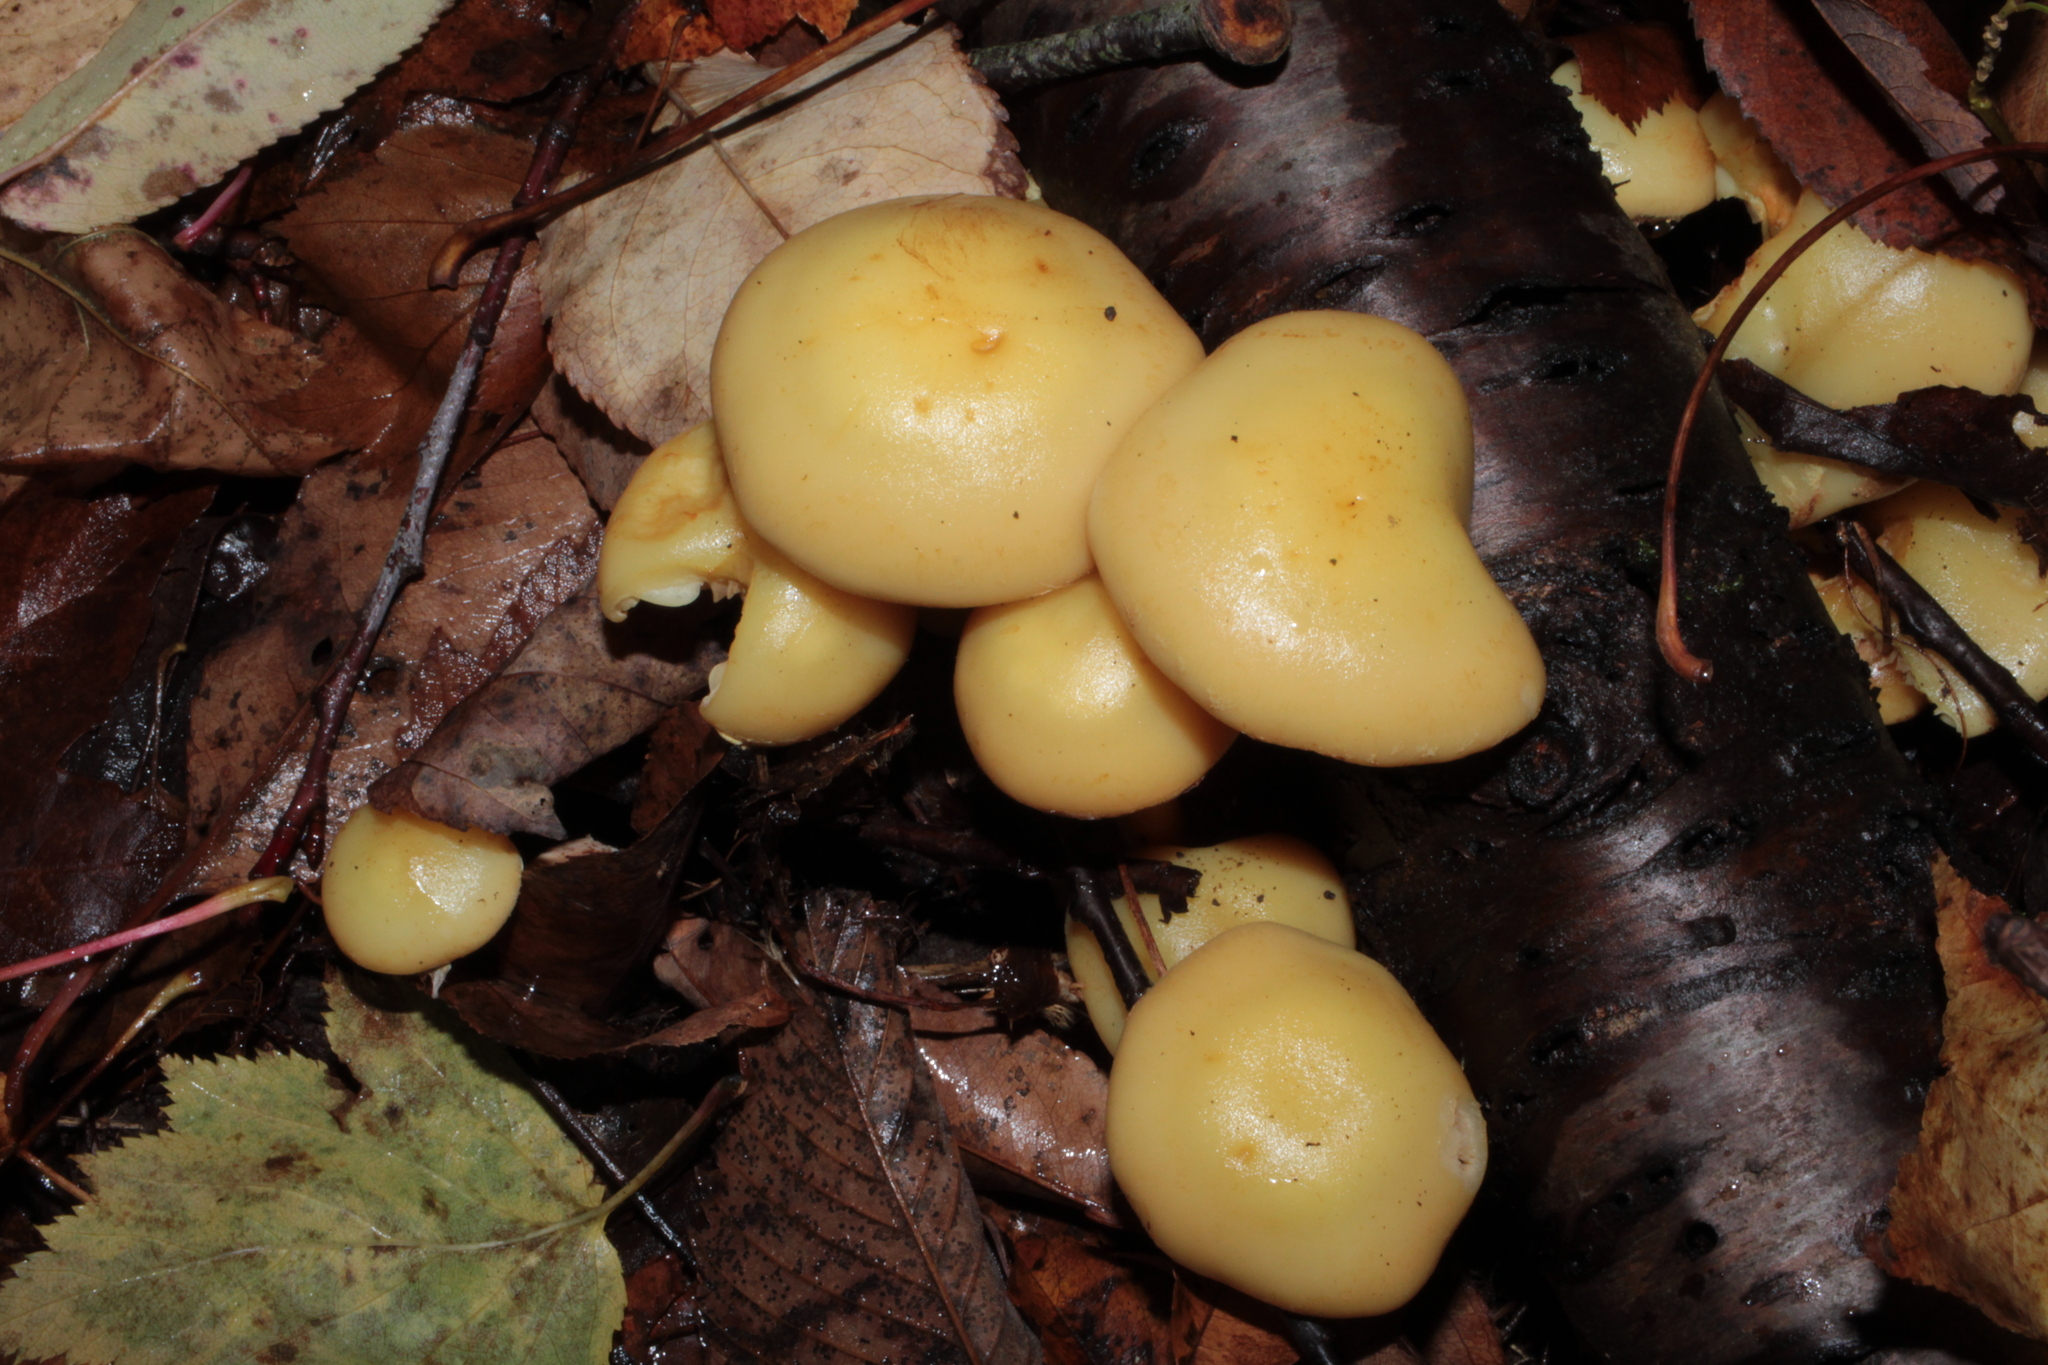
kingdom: Fungi
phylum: Basidiomycota
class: Agaricomycetes
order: Agaricales
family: Hymenogastraceae
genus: Flammula
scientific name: Flammula alnicola
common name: Alder scalycap
